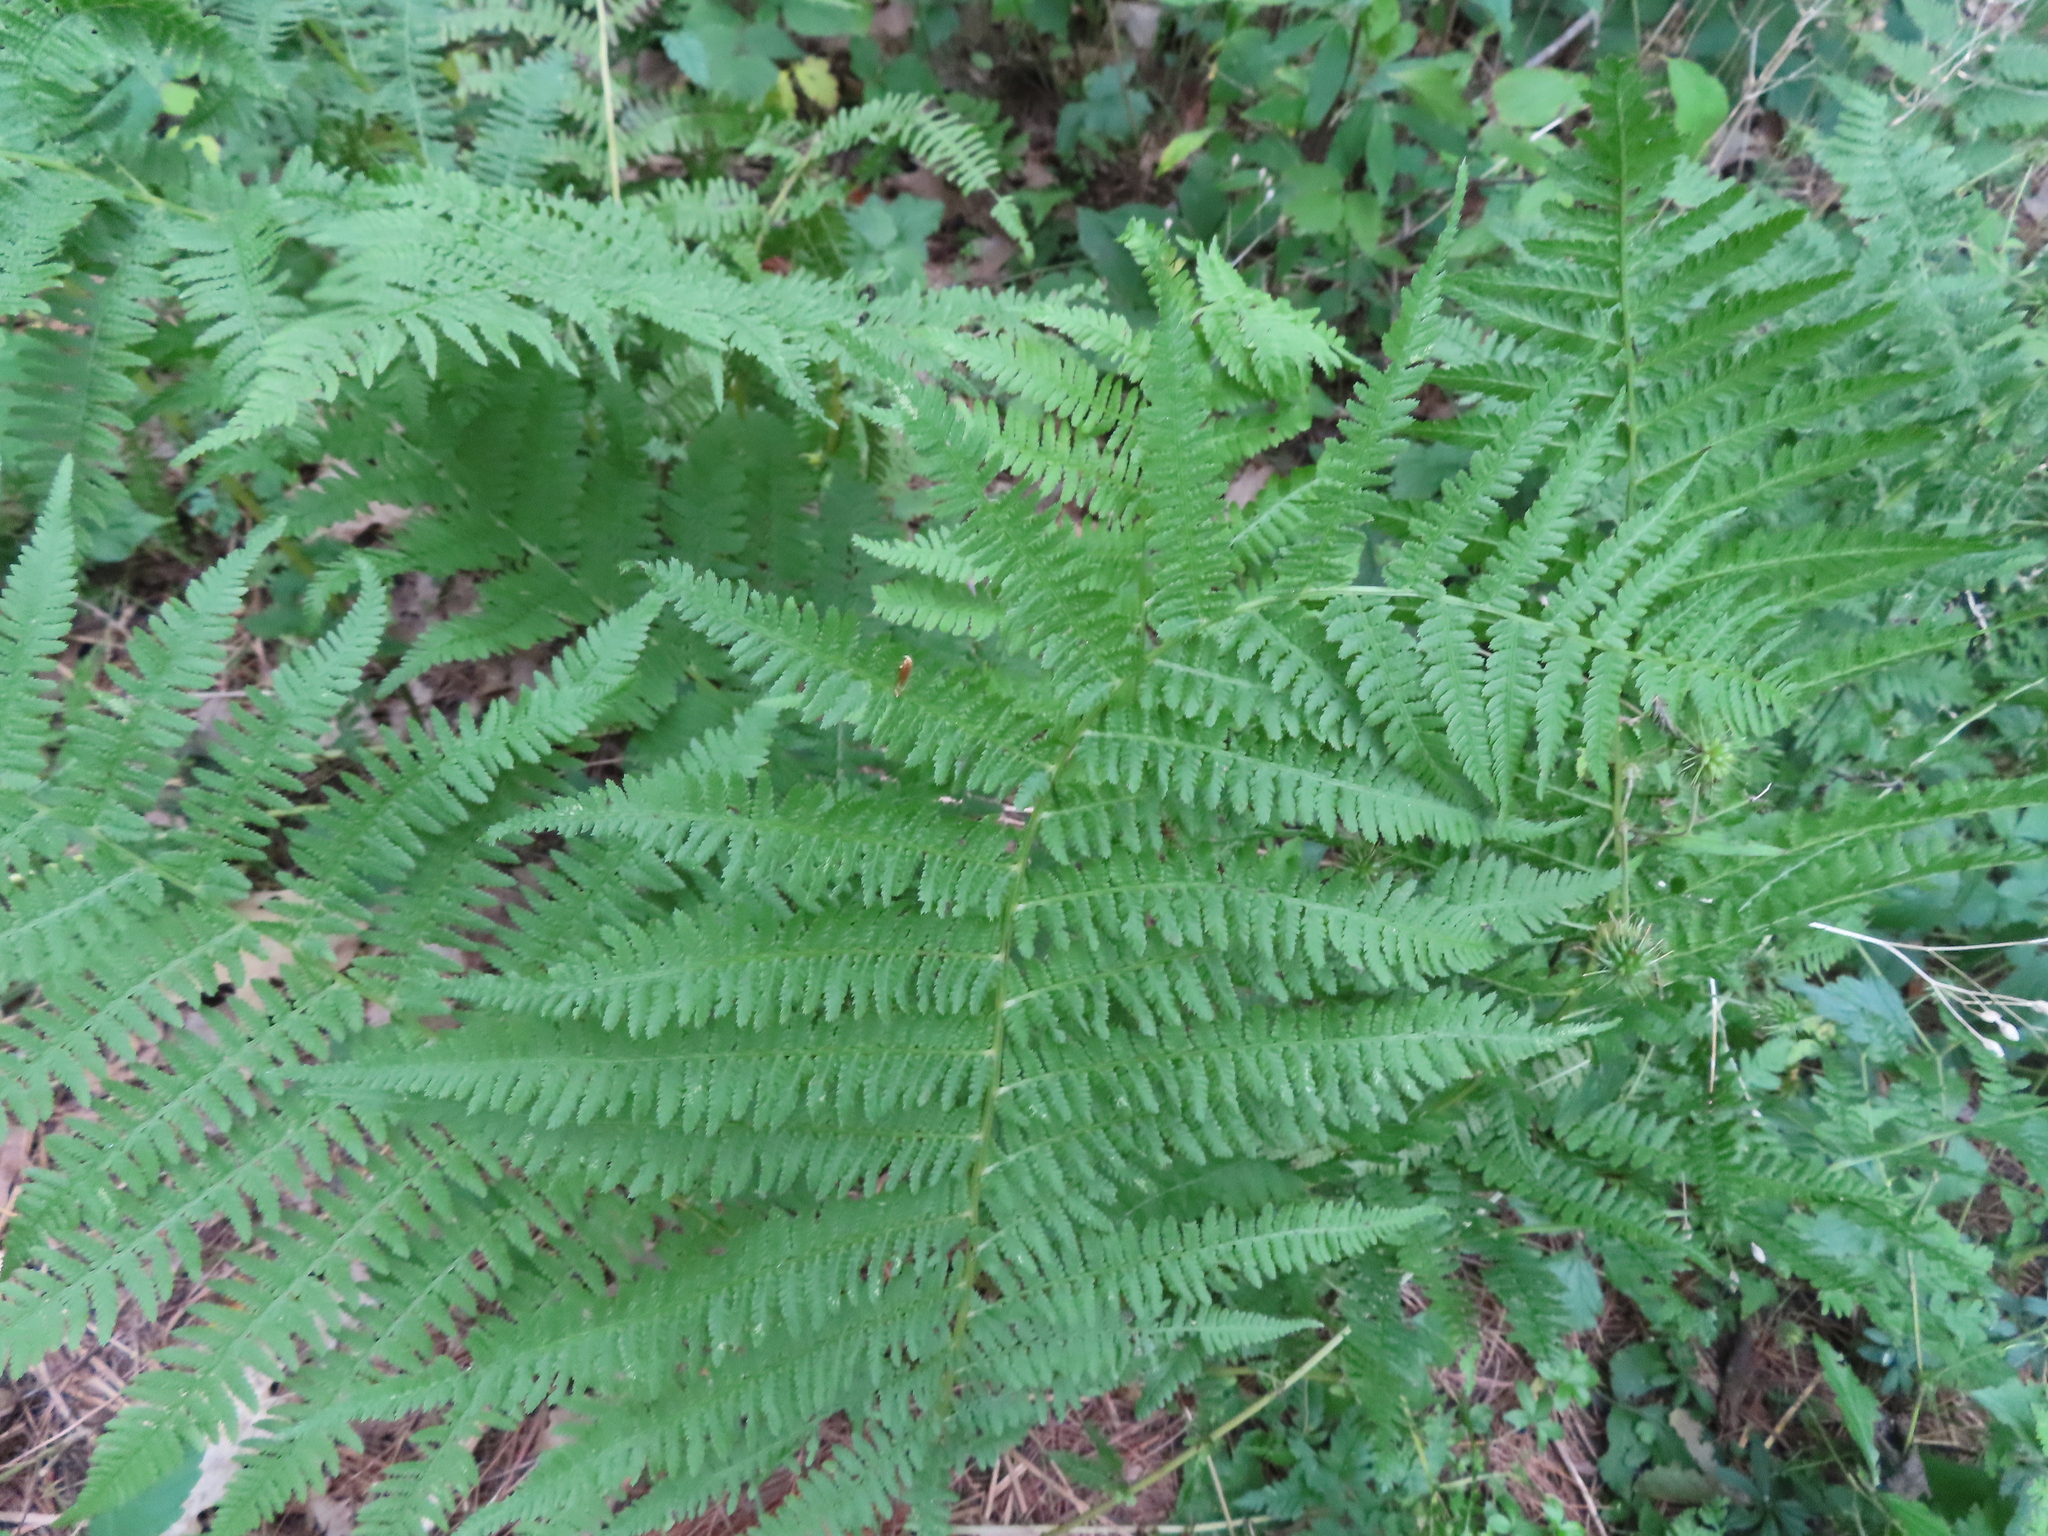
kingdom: Plantae
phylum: Tracheophyta
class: Polypodiopsida
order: Polypodiales
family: Athyriaceae
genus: Athyrium
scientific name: Athyrium angustum
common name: Northern lady fern
